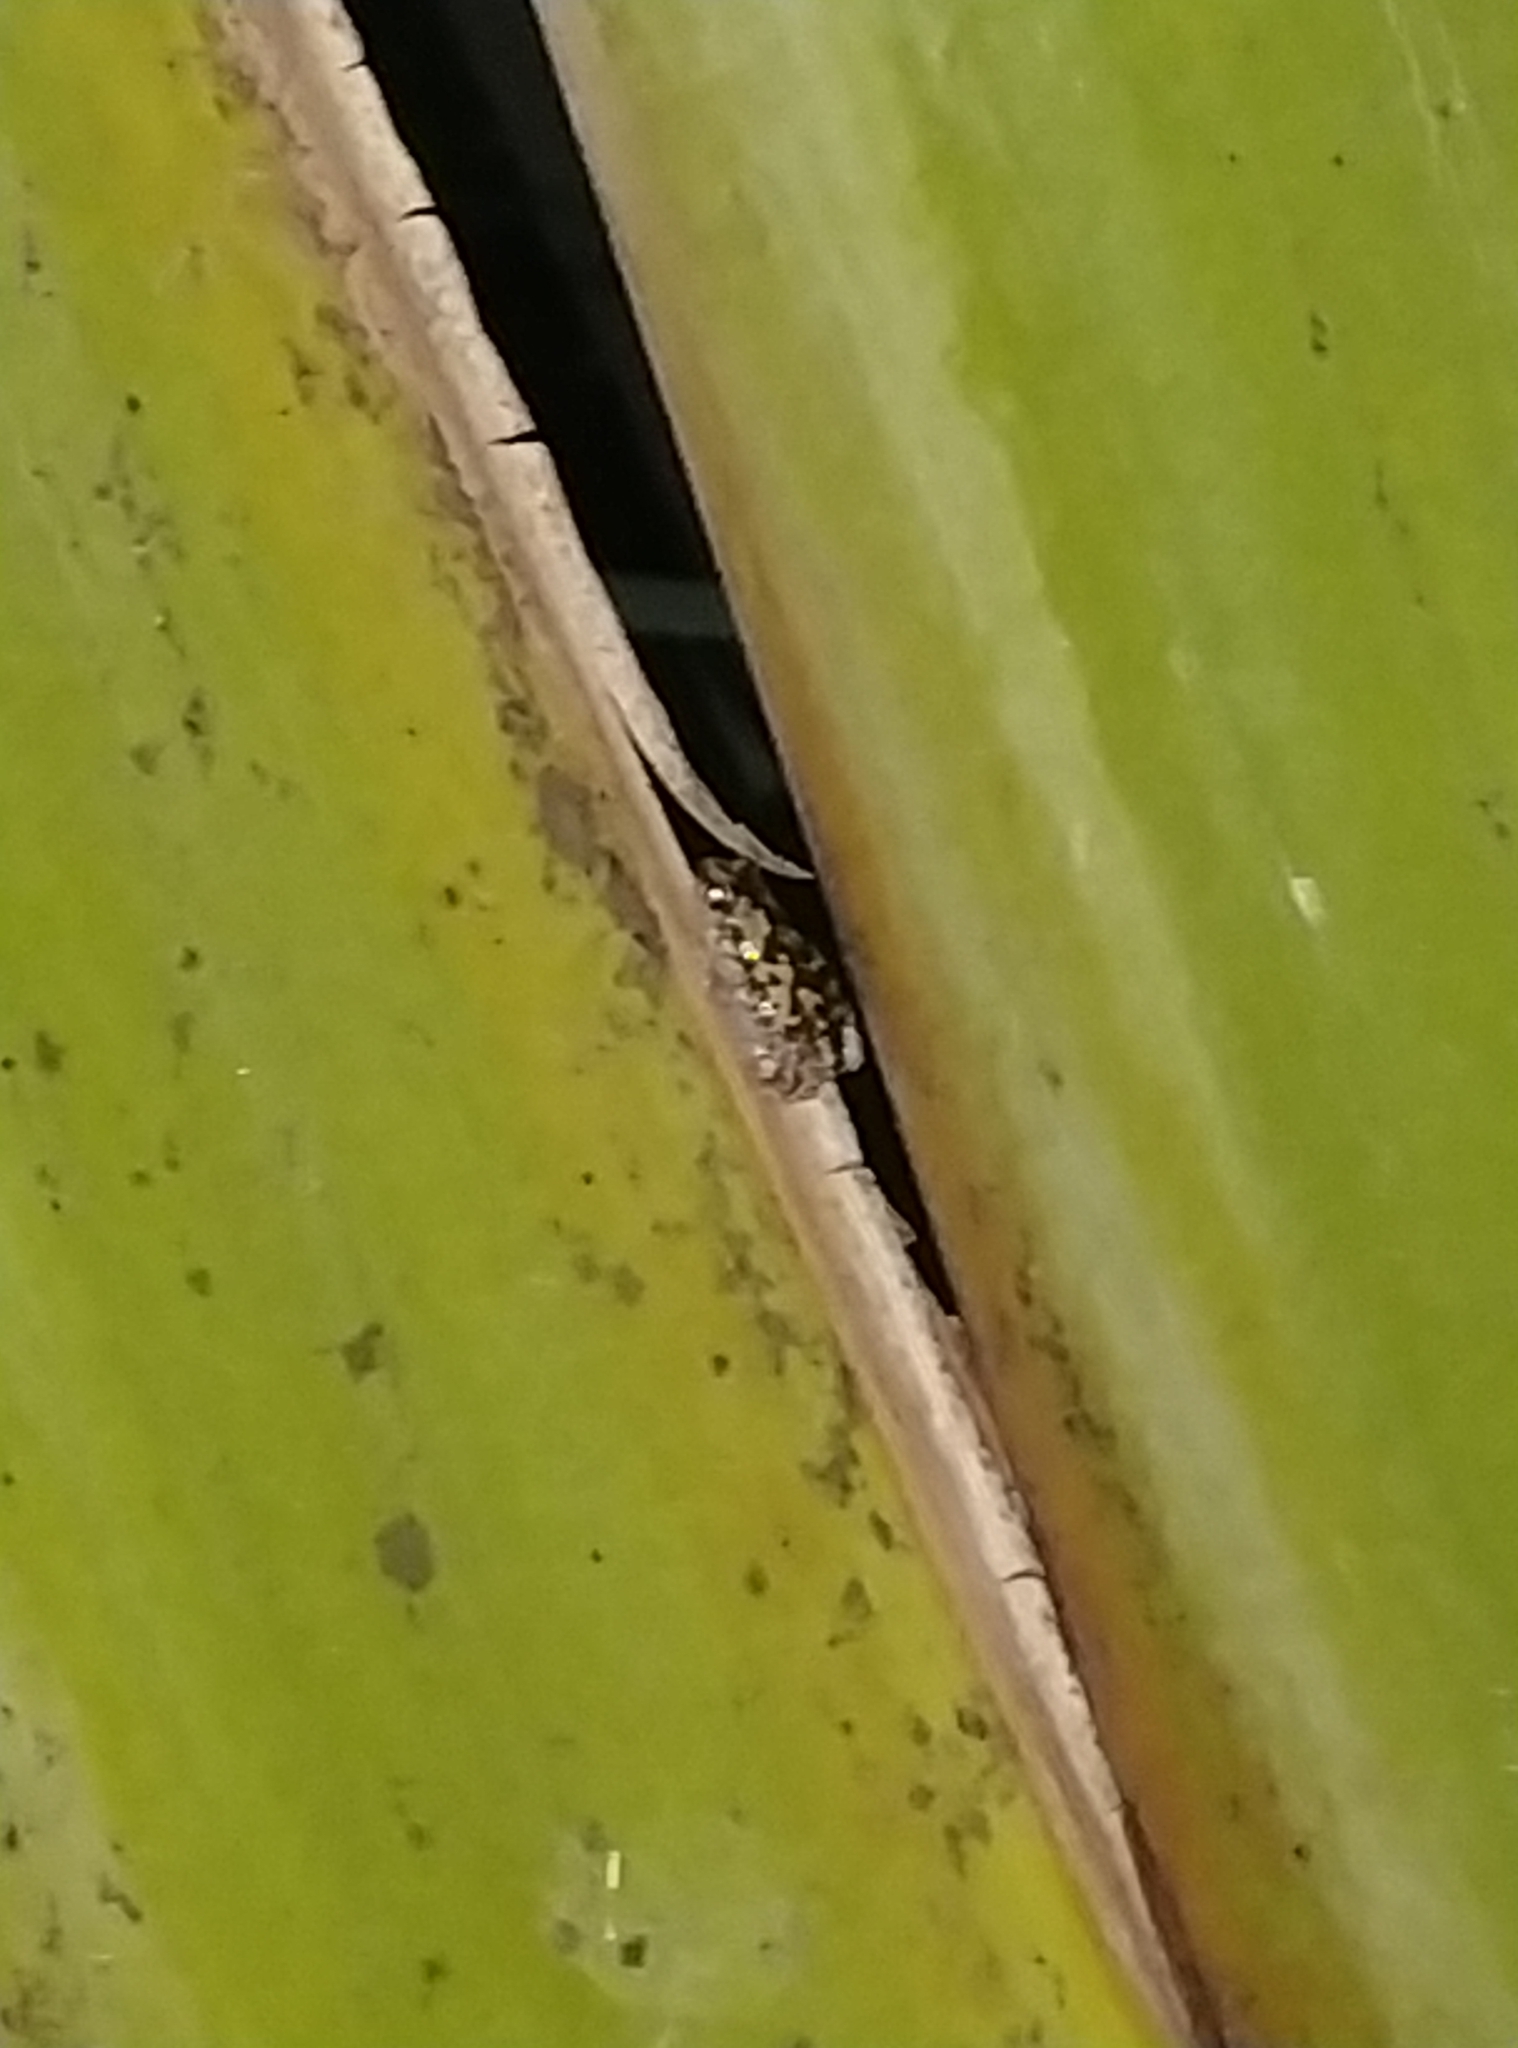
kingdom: Animalia
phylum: Chordata
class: Amphibia
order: Anura
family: Microhylidae
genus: Uperodon
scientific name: Uperodon variegatus
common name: Eluru dot frog
